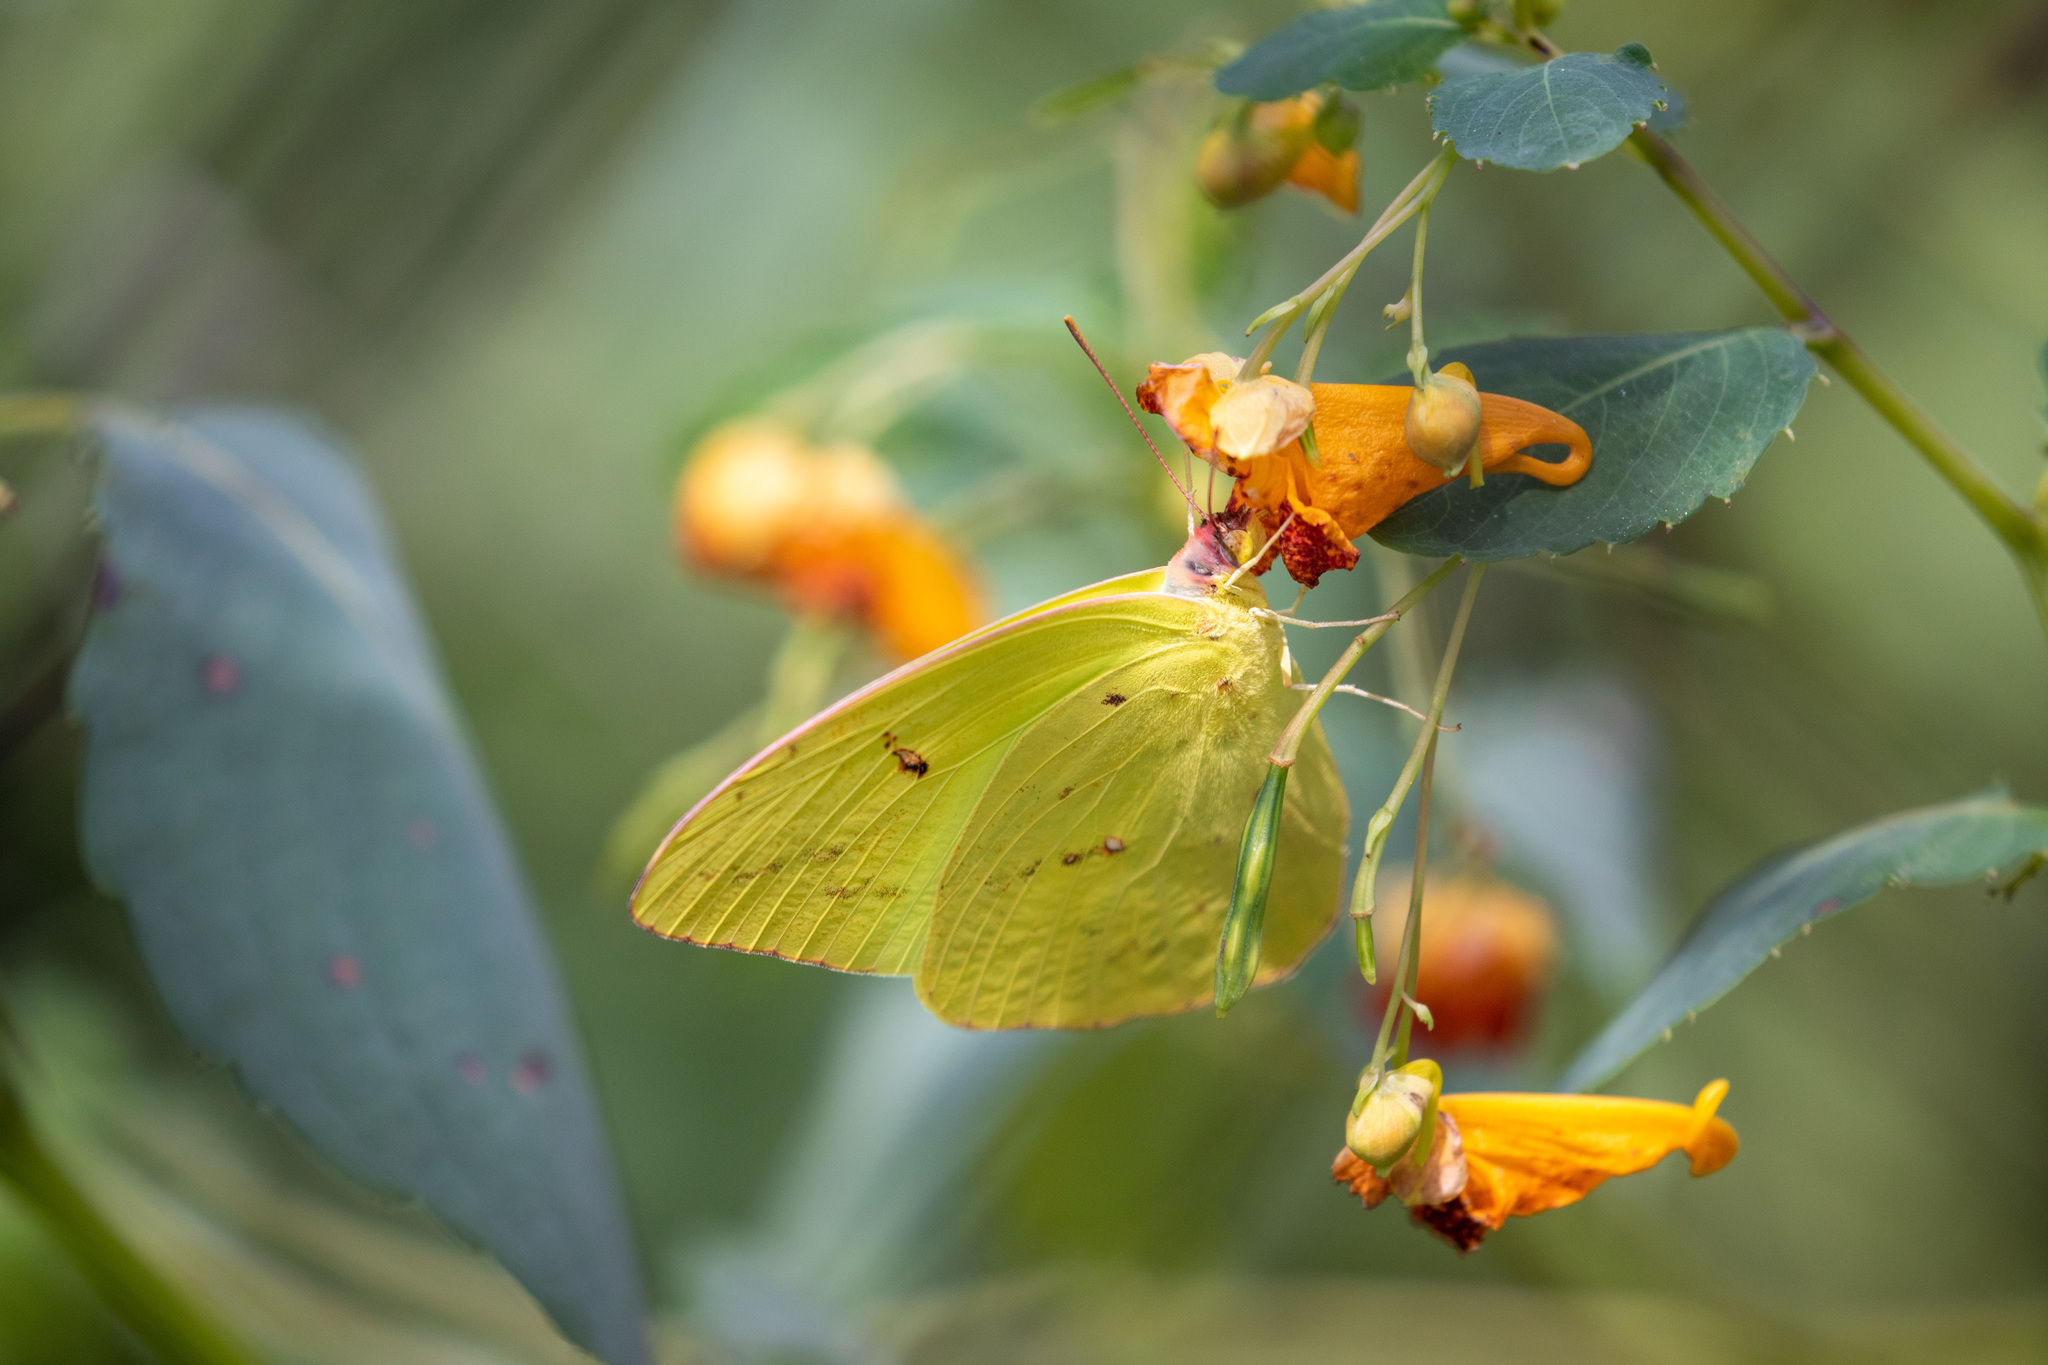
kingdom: Animalia
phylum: Arthropoda
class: Insecta
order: Lepidoptera
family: Pieridae
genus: Phoebis
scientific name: Phoebis sennae
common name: Cloudless sulphur
